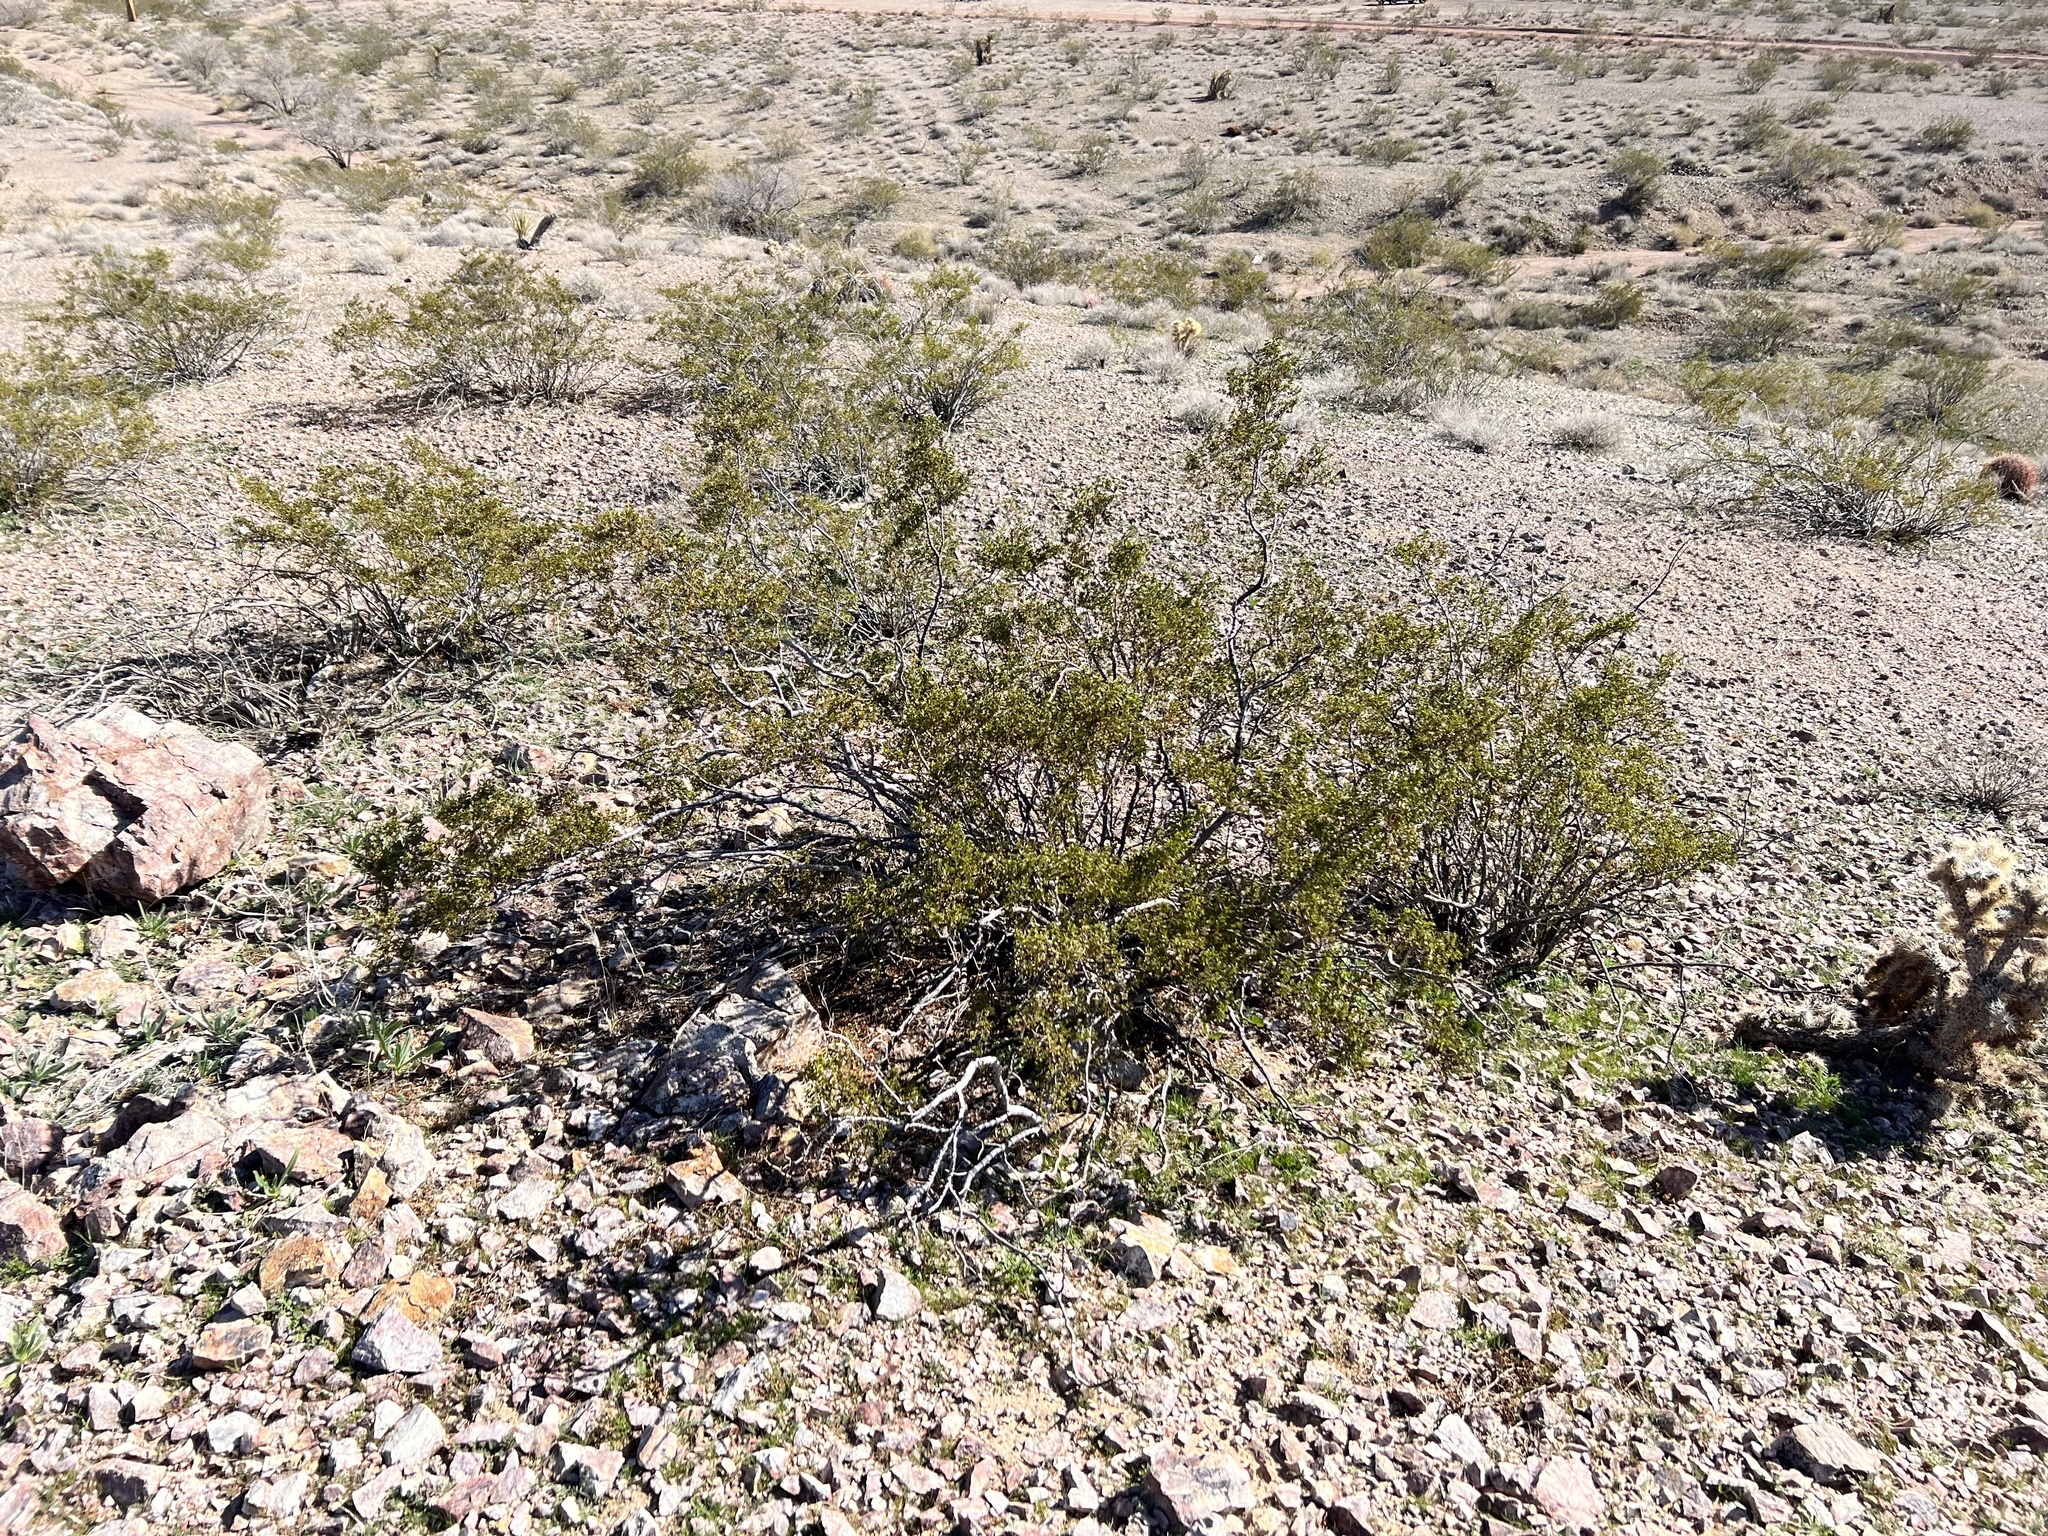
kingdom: Plantae
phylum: Tracheophyta
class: Magnoliopsida
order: Zygophyllales
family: Zygophyllaceae
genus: Larrea
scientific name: Larrea tridentata
